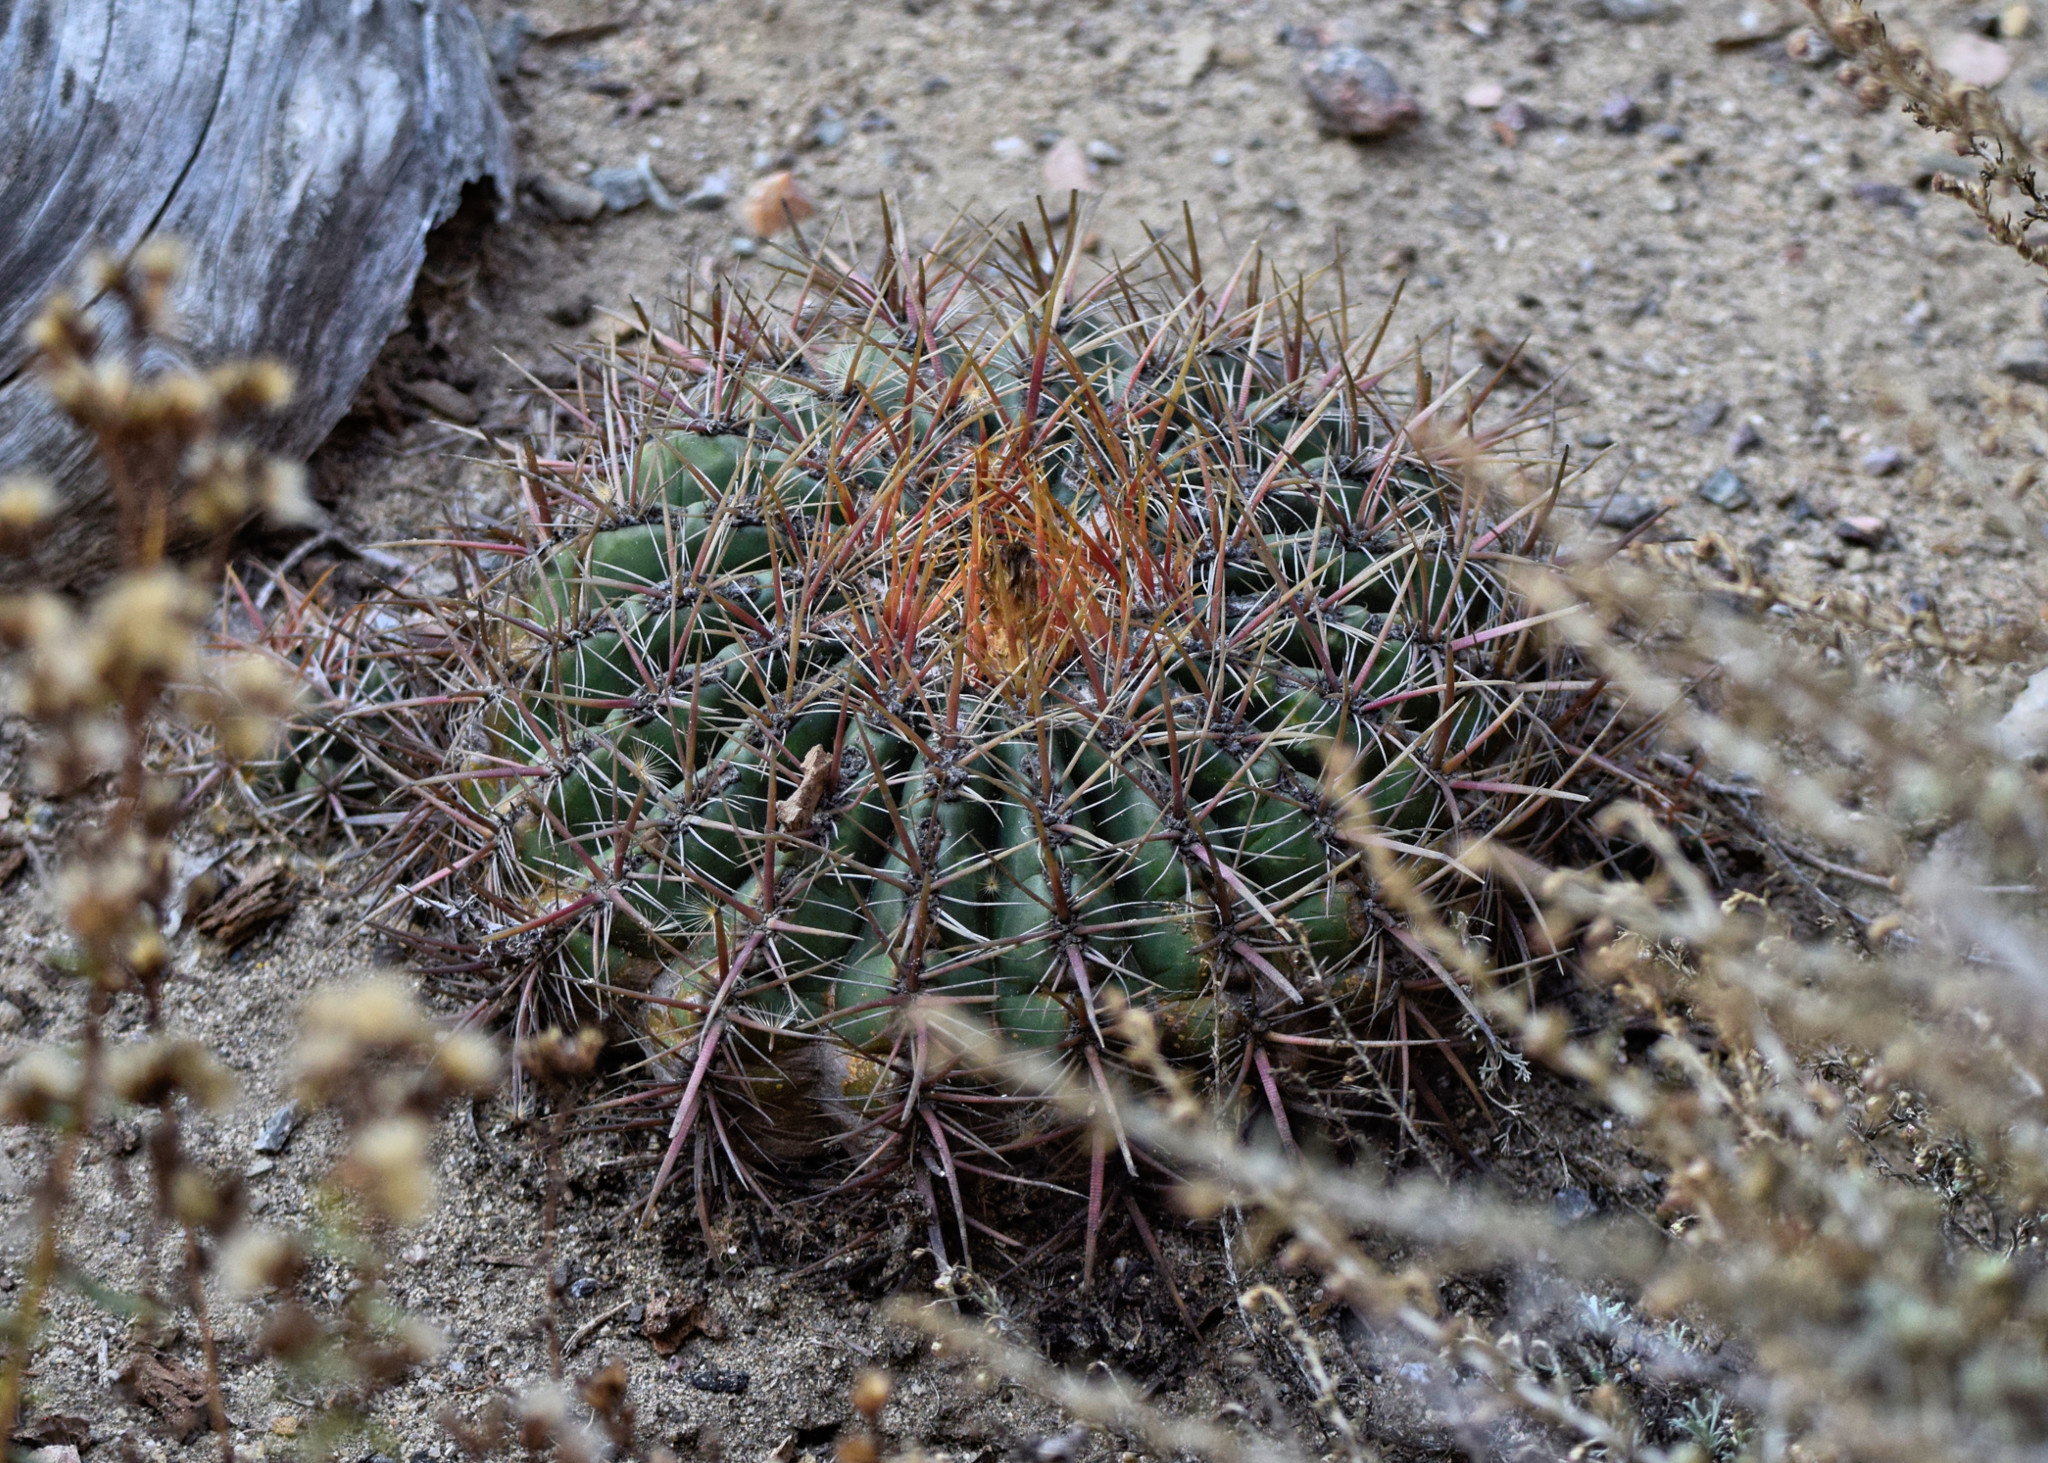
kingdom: Plantae
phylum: Tracheophyta
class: Magnoliopsida
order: Caryophyllales
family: Cactaceae
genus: Ferocactus
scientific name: Ferocactus viridescens
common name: San diego barrel cactus
